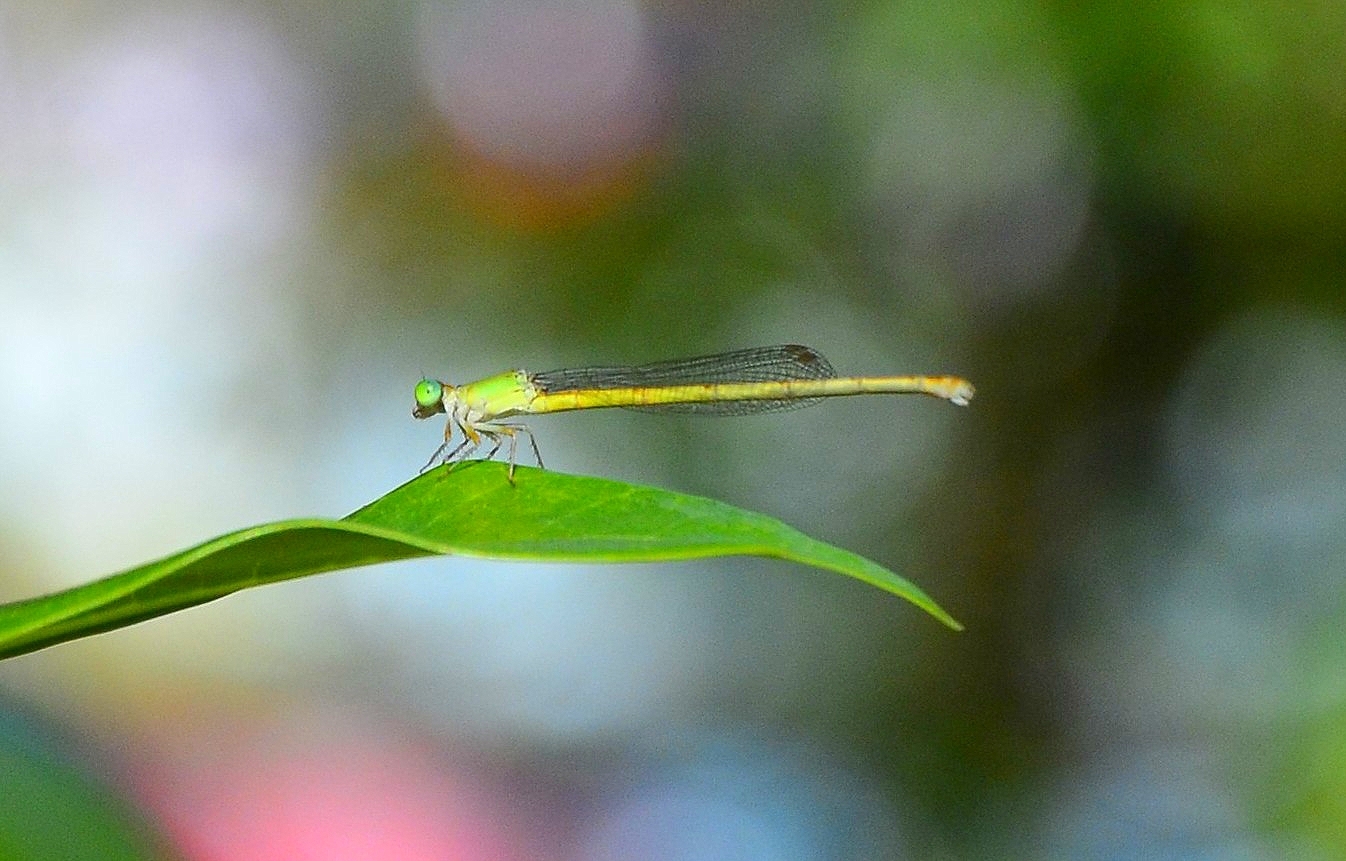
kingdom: Animalia
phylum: Arthropoda
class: Insecta
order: Odonata
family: Coenagrionidae
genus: Ceriagrion
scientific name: Ceriagrion coromandelianum
